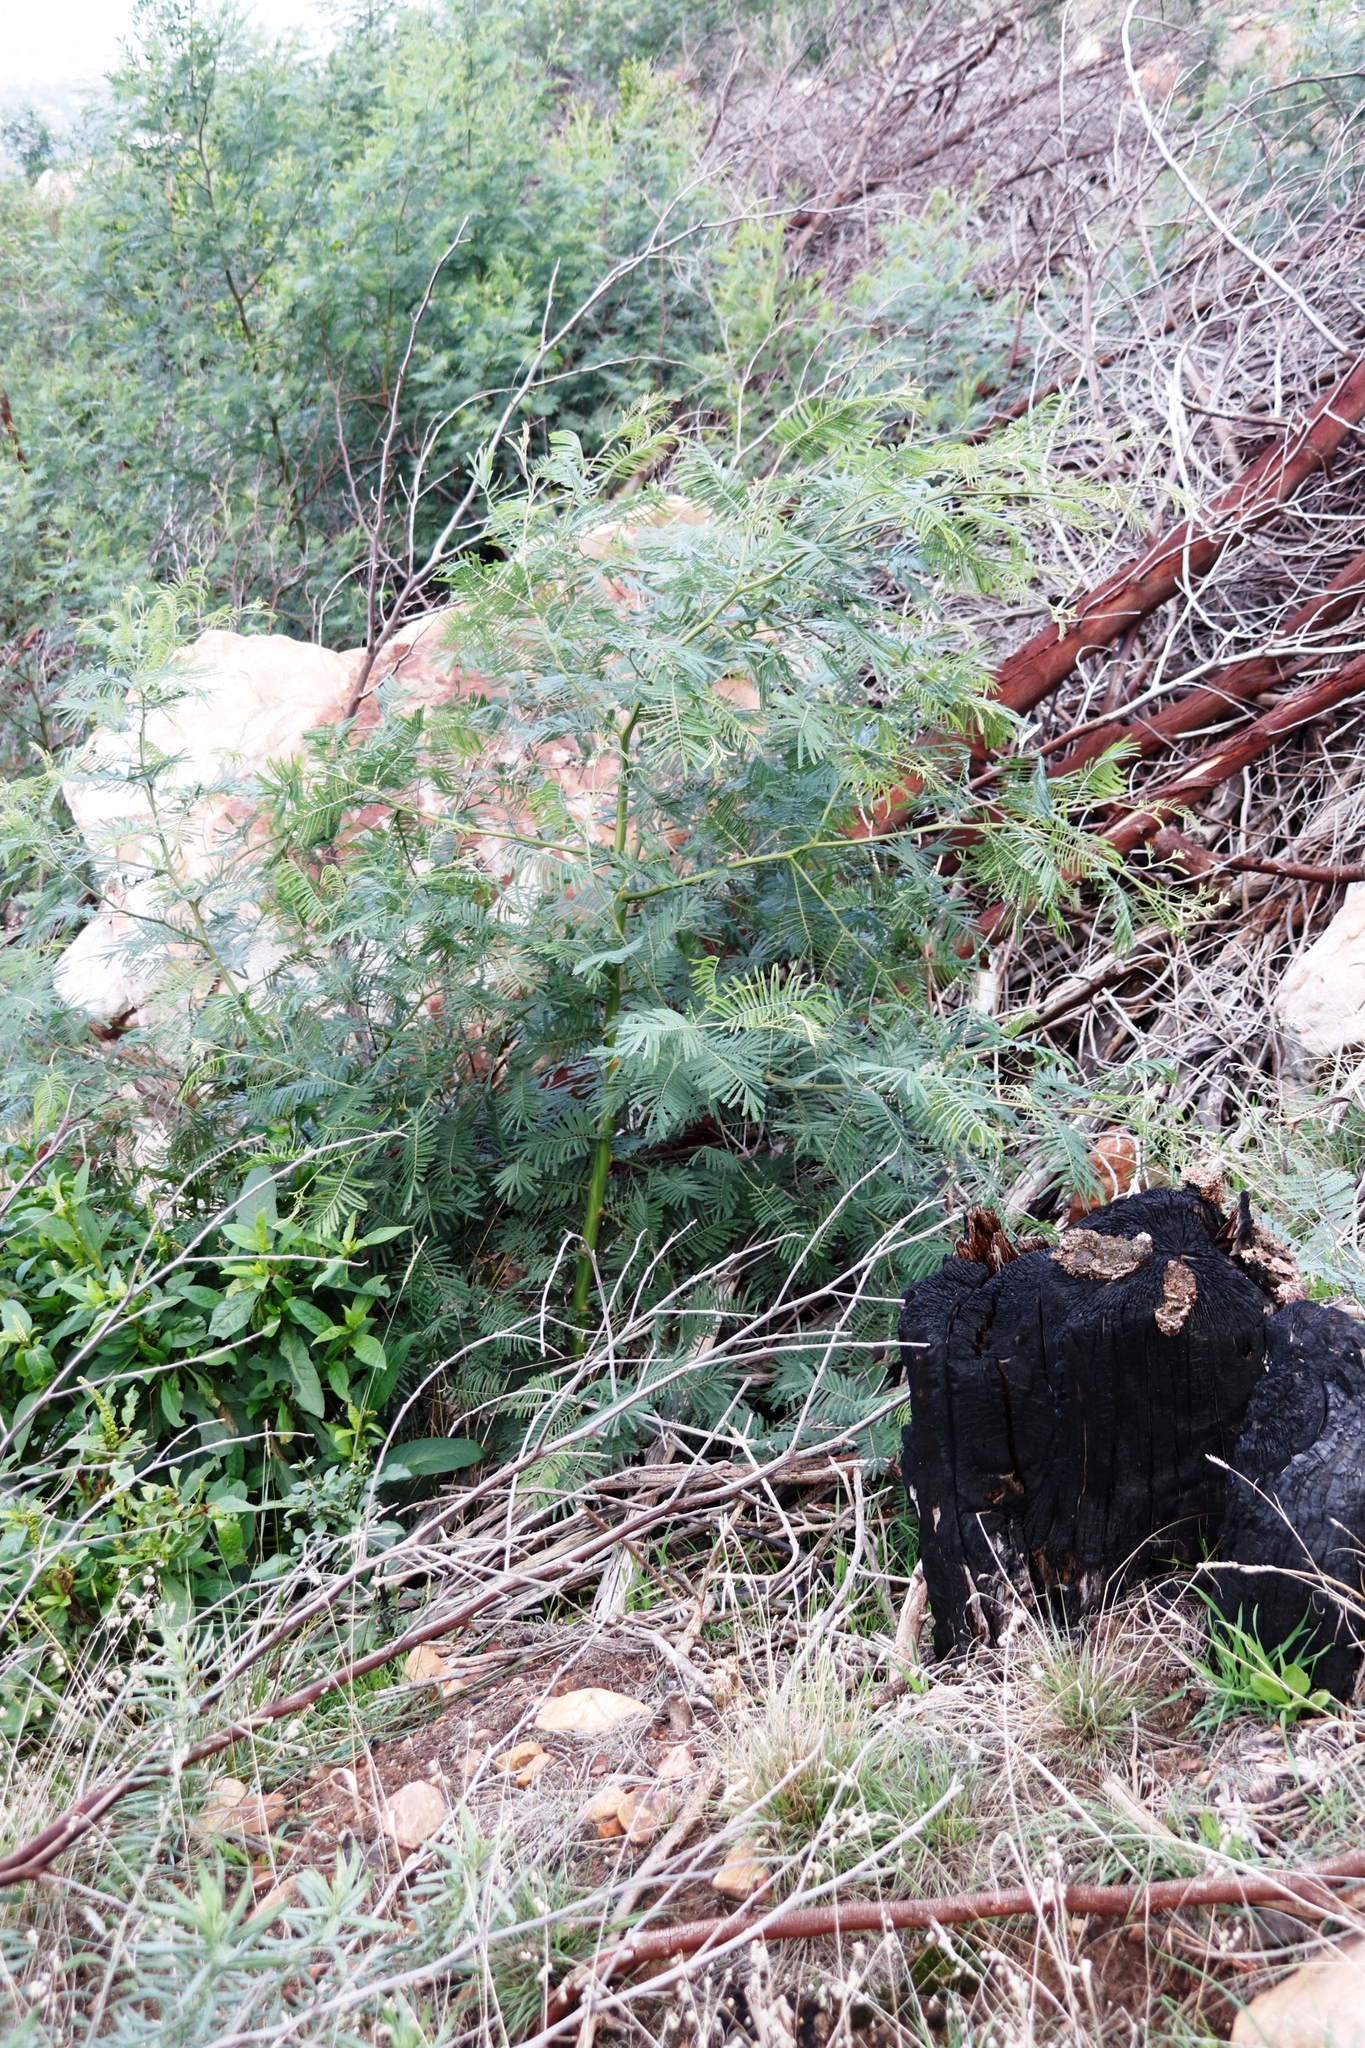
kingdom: Plantae
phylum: Tracheophyta
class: Magnoliopsida
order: Fabales
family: Fabaceae
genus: Acacia
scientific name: Acacia mearnsii
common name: Black wattle
